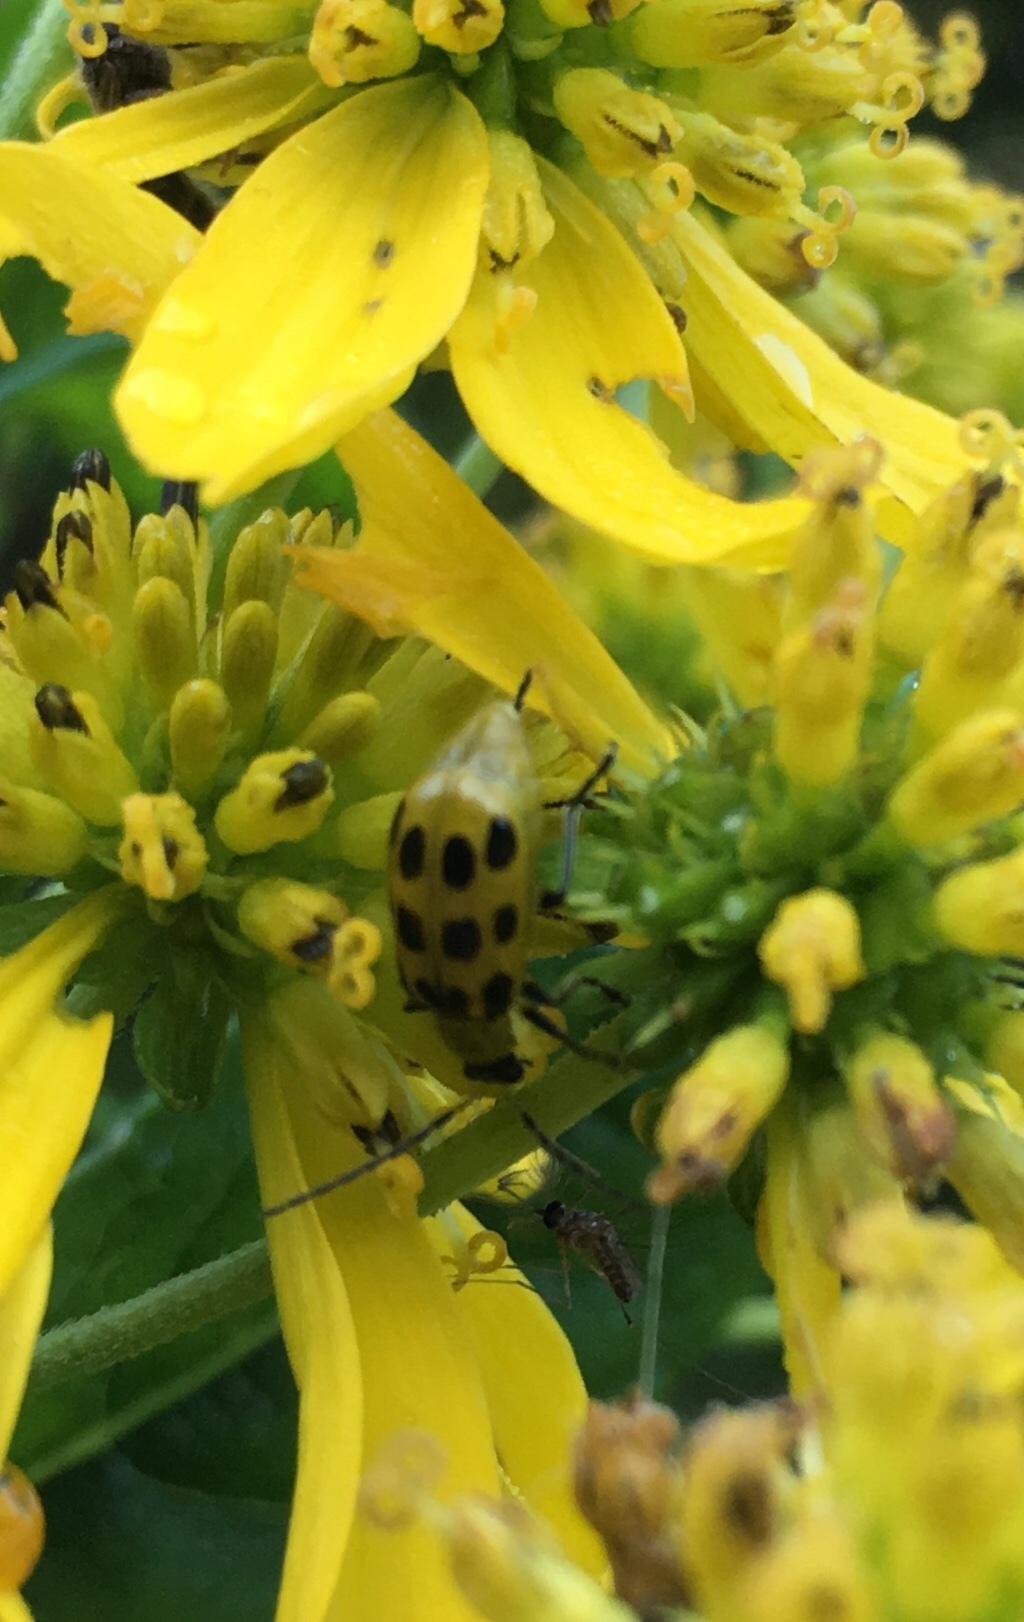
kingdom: Animalia
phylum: Arthropoda
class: Insecta
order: Coleoptera
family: Chrysomelidae
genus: Diabrotica
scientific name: Diabrotica undecimpunctata
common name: Spotted cucumber beetle
